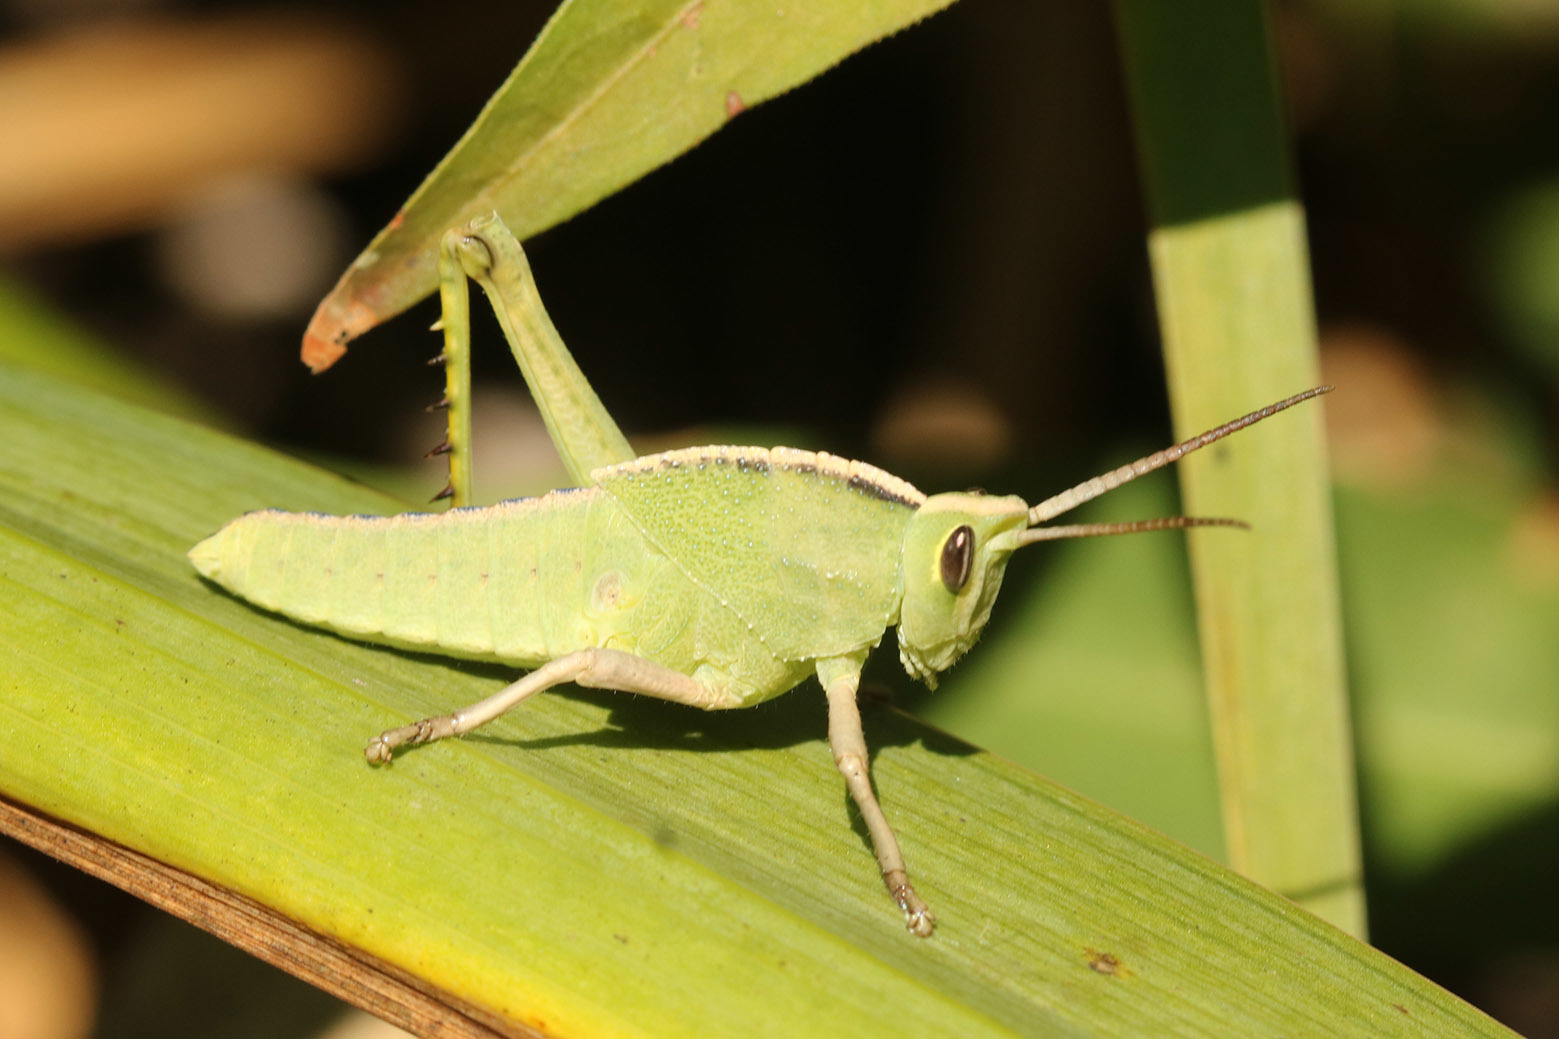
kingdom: Animalia
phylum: Arthropoda
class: Insecta
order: Orthoptera
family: Romaleidae
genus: Staleochlora
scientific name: Staleochlora viridicata
